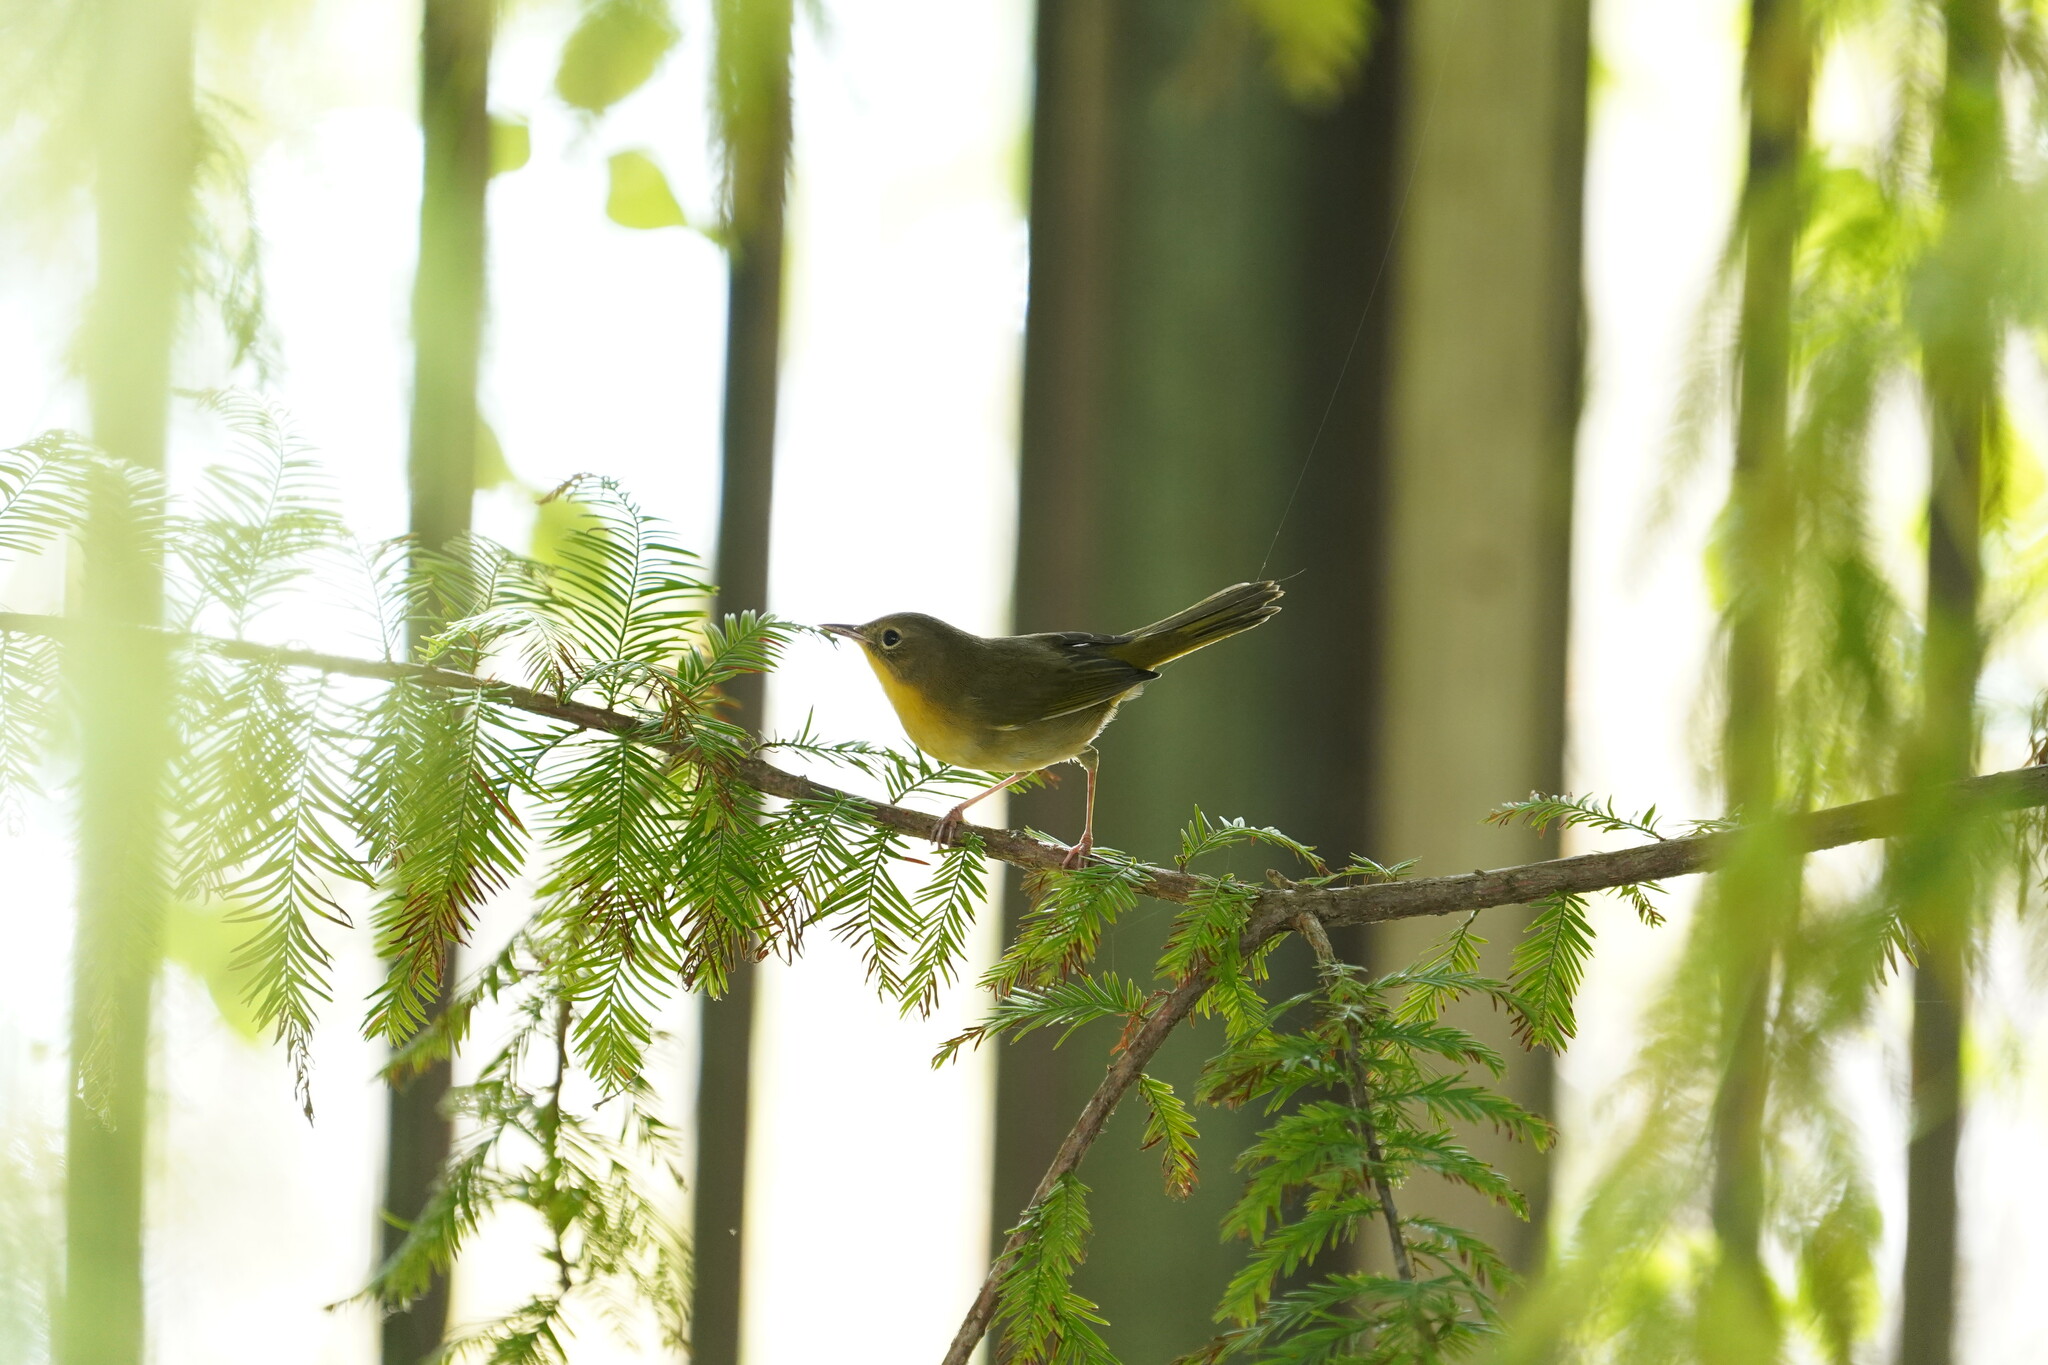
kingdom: Animalia
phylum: Chordata
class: Aves
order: Passeriformes
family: Parulidae
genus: Geothlypis
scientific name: Geothlypis trichas
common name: Common yellowthroat
